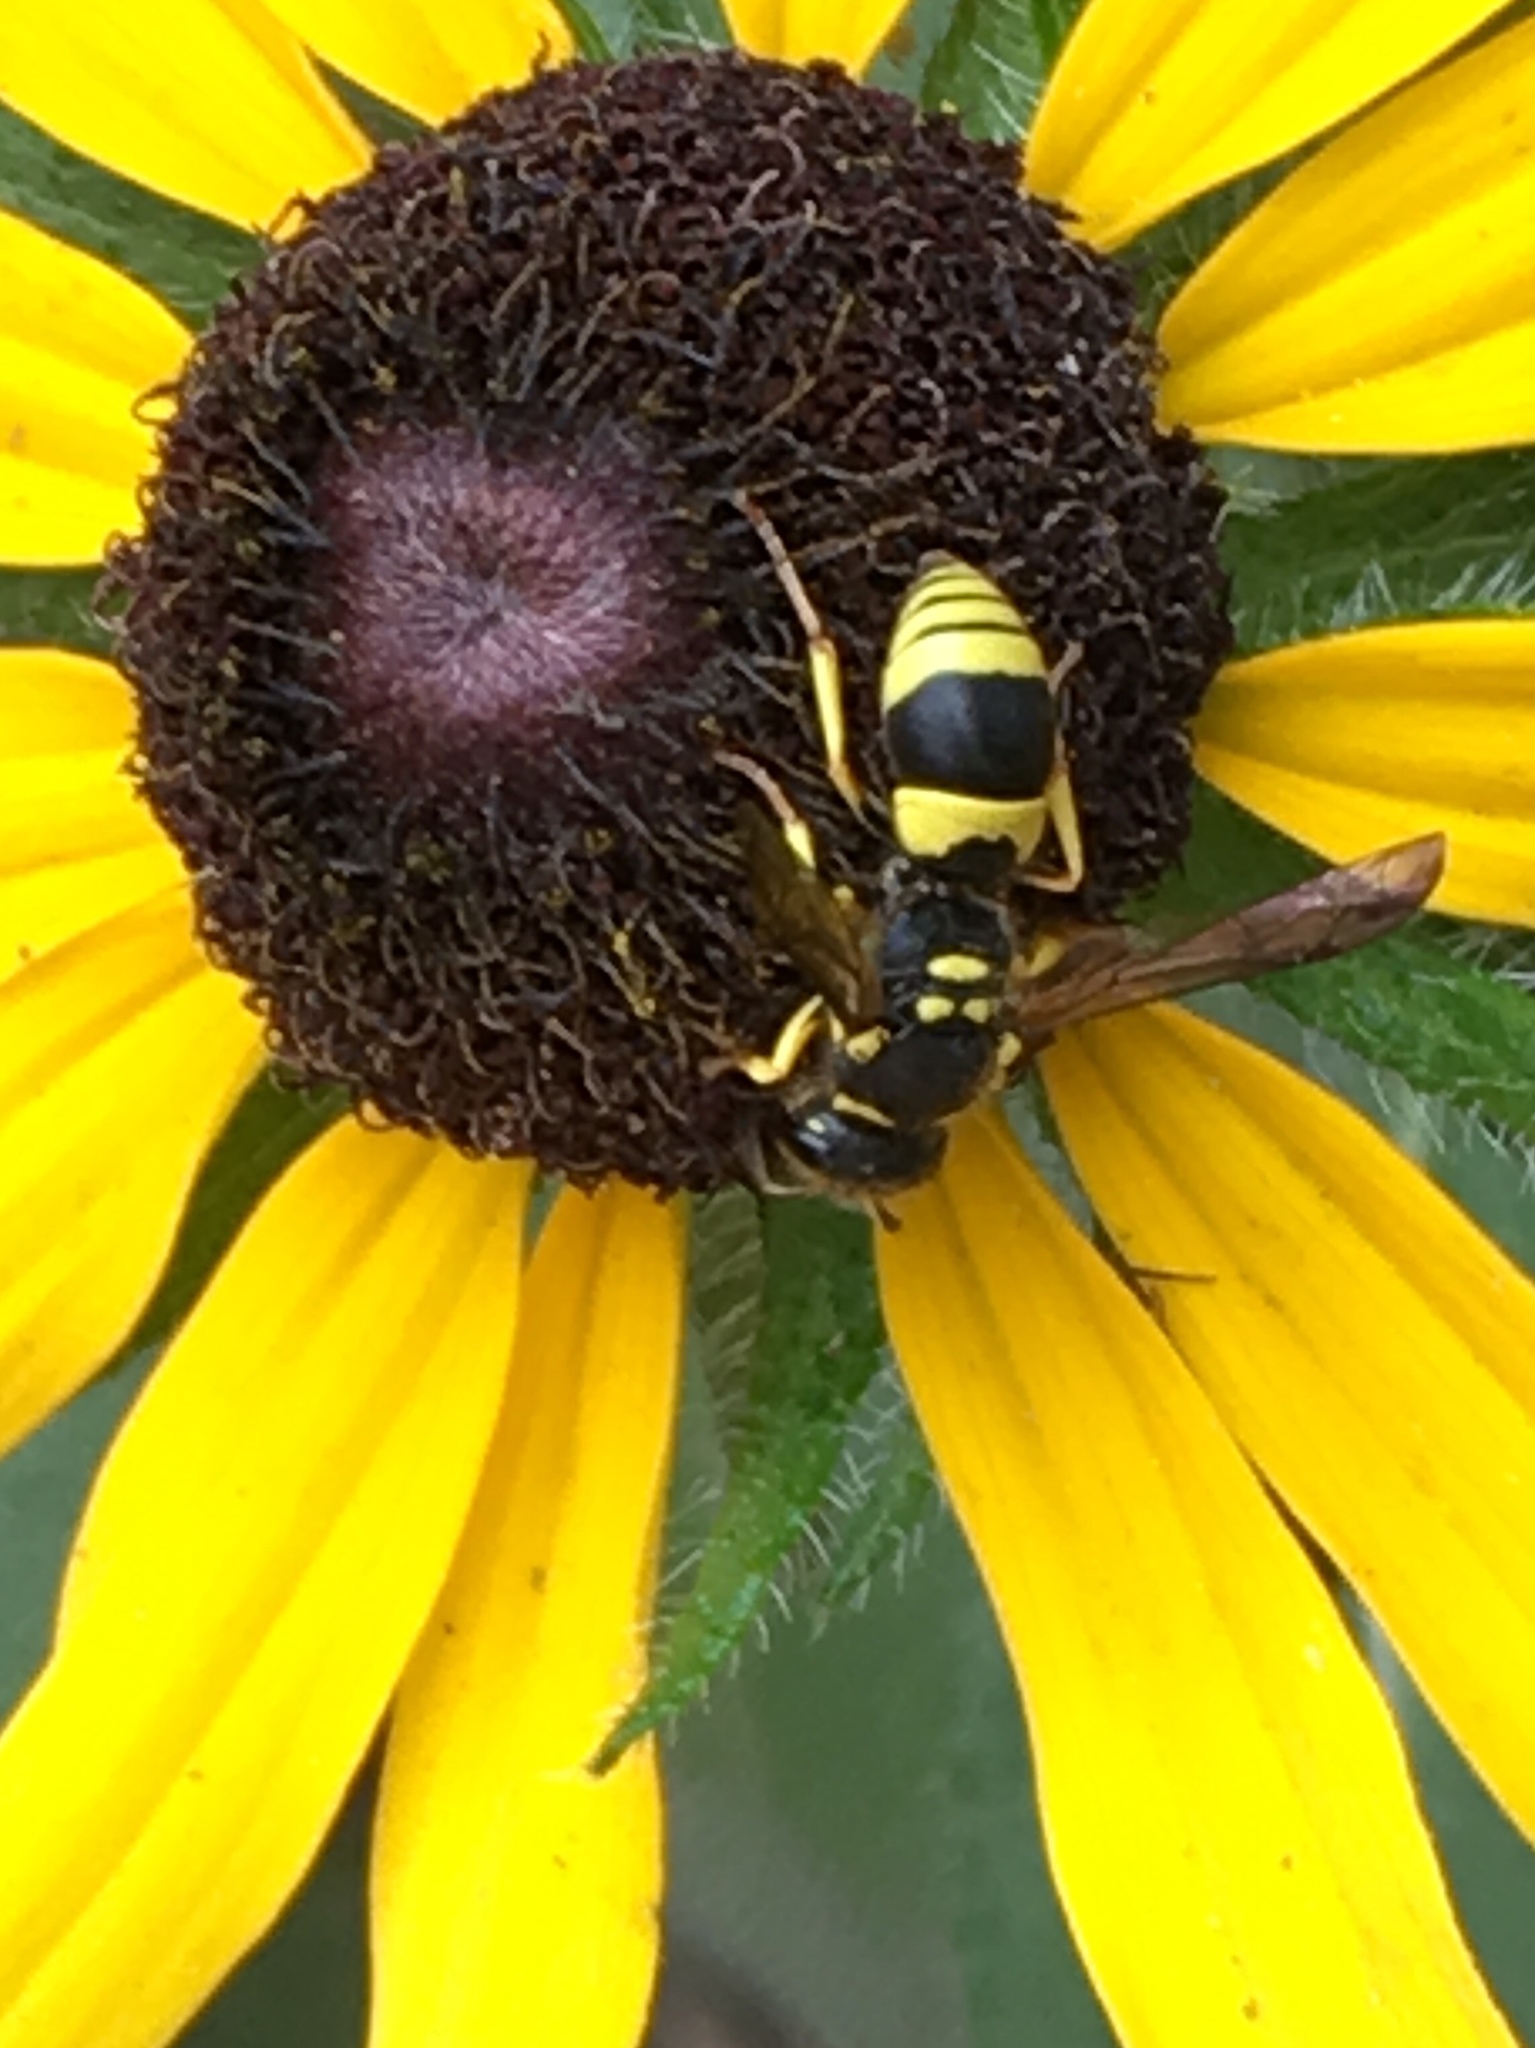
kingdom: Animalia
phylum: Arthropoda
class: Insecta
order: Hymenoptera
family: Vespidae
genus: Ancistrocerus
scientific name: Ancistrocerus gazella
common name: European tube wasp
